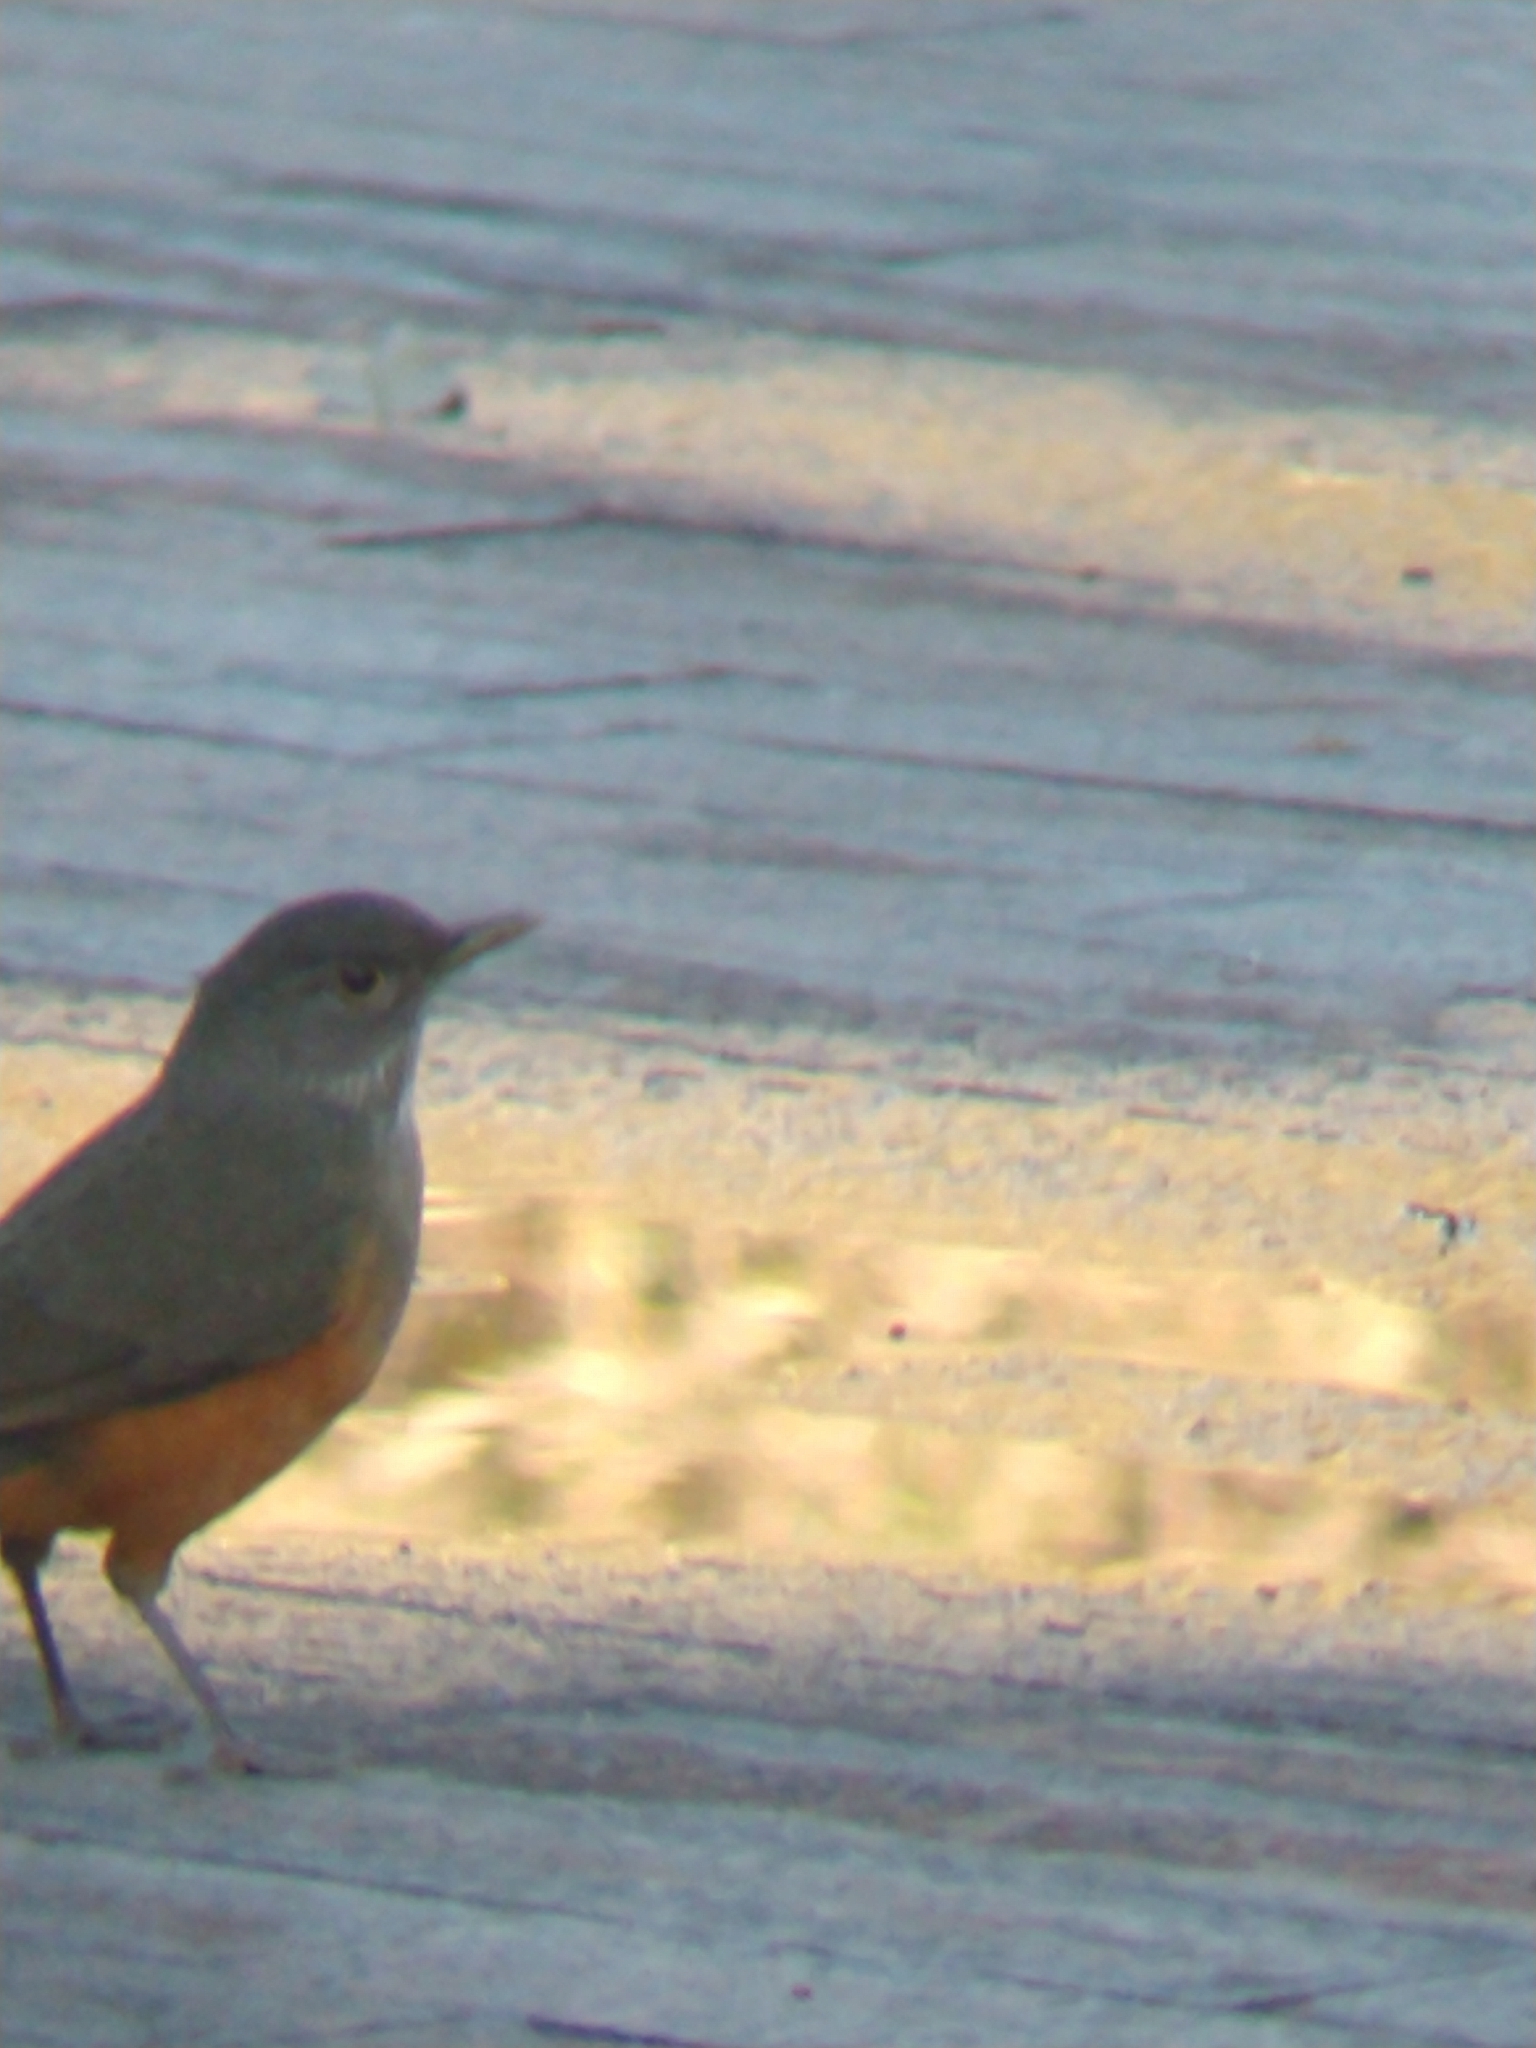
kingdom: Animalia
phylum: Chordata
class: Aves
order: Passeriformes
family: Turdidae
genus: Turdus
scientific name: Turdus rufiventris
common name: Rufous-bellied thrush
